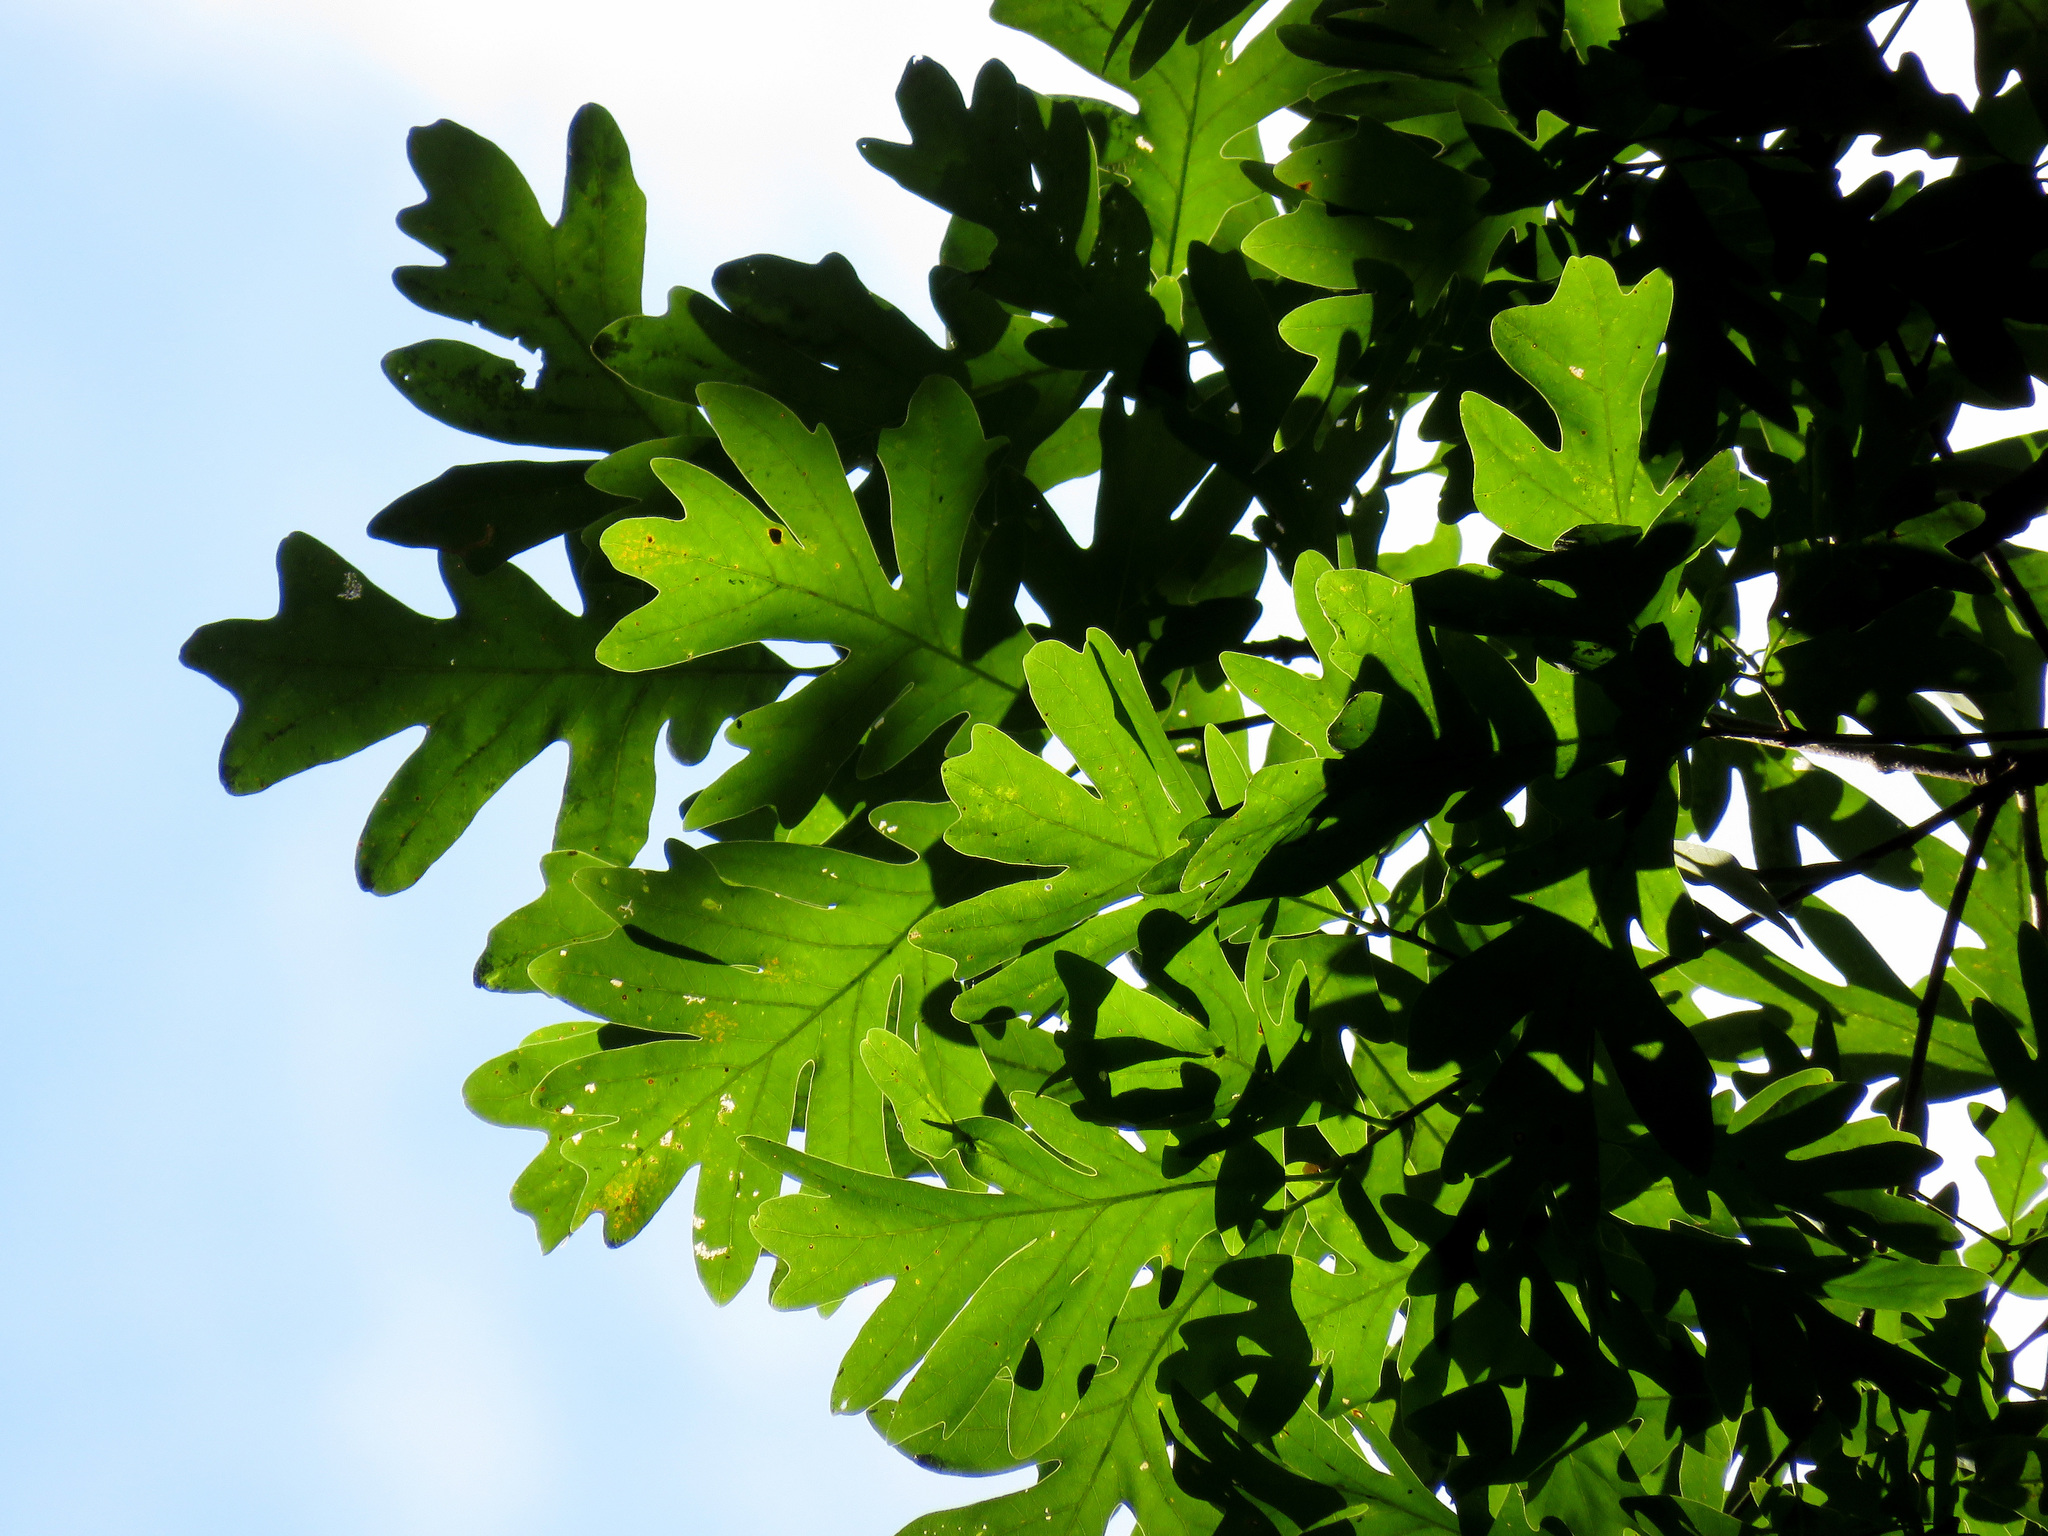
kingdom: Plantae
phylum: Tracheophyta
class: Magnoliopsida
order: Fagales
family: Fagaceae
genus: Quercus
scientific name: Quercus alba
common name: White oak
